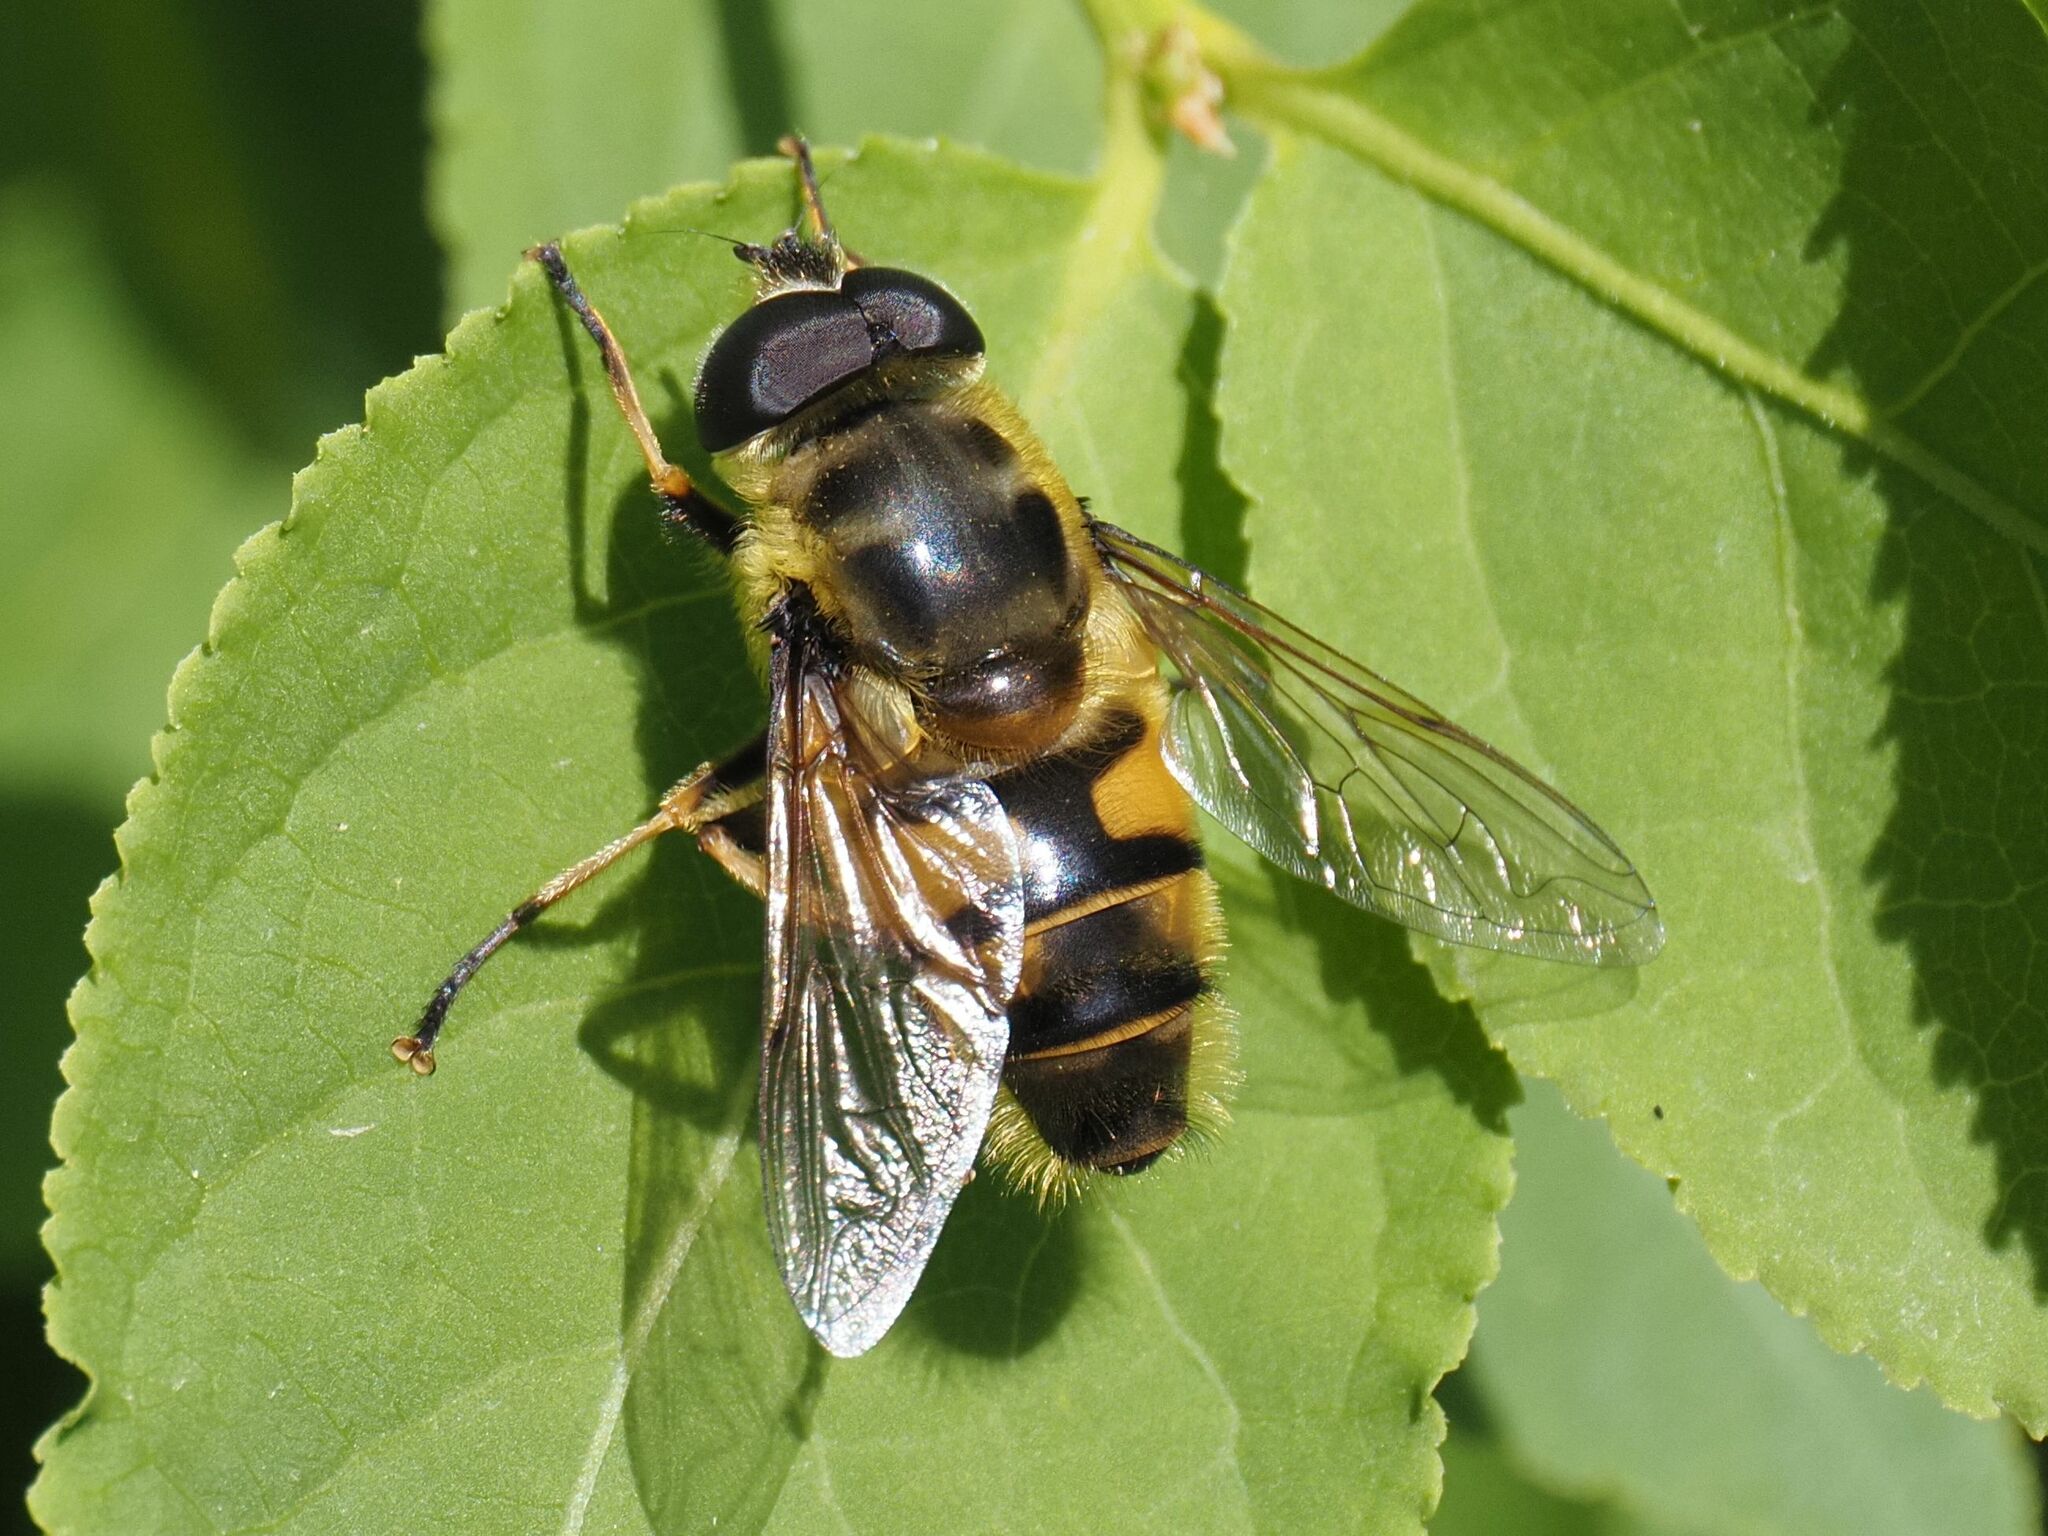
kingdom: Animalia
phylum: Arthropoda
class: Insecta
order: Diptera
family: Syrphidae
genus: Myathropa
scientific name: Myathropa florea
